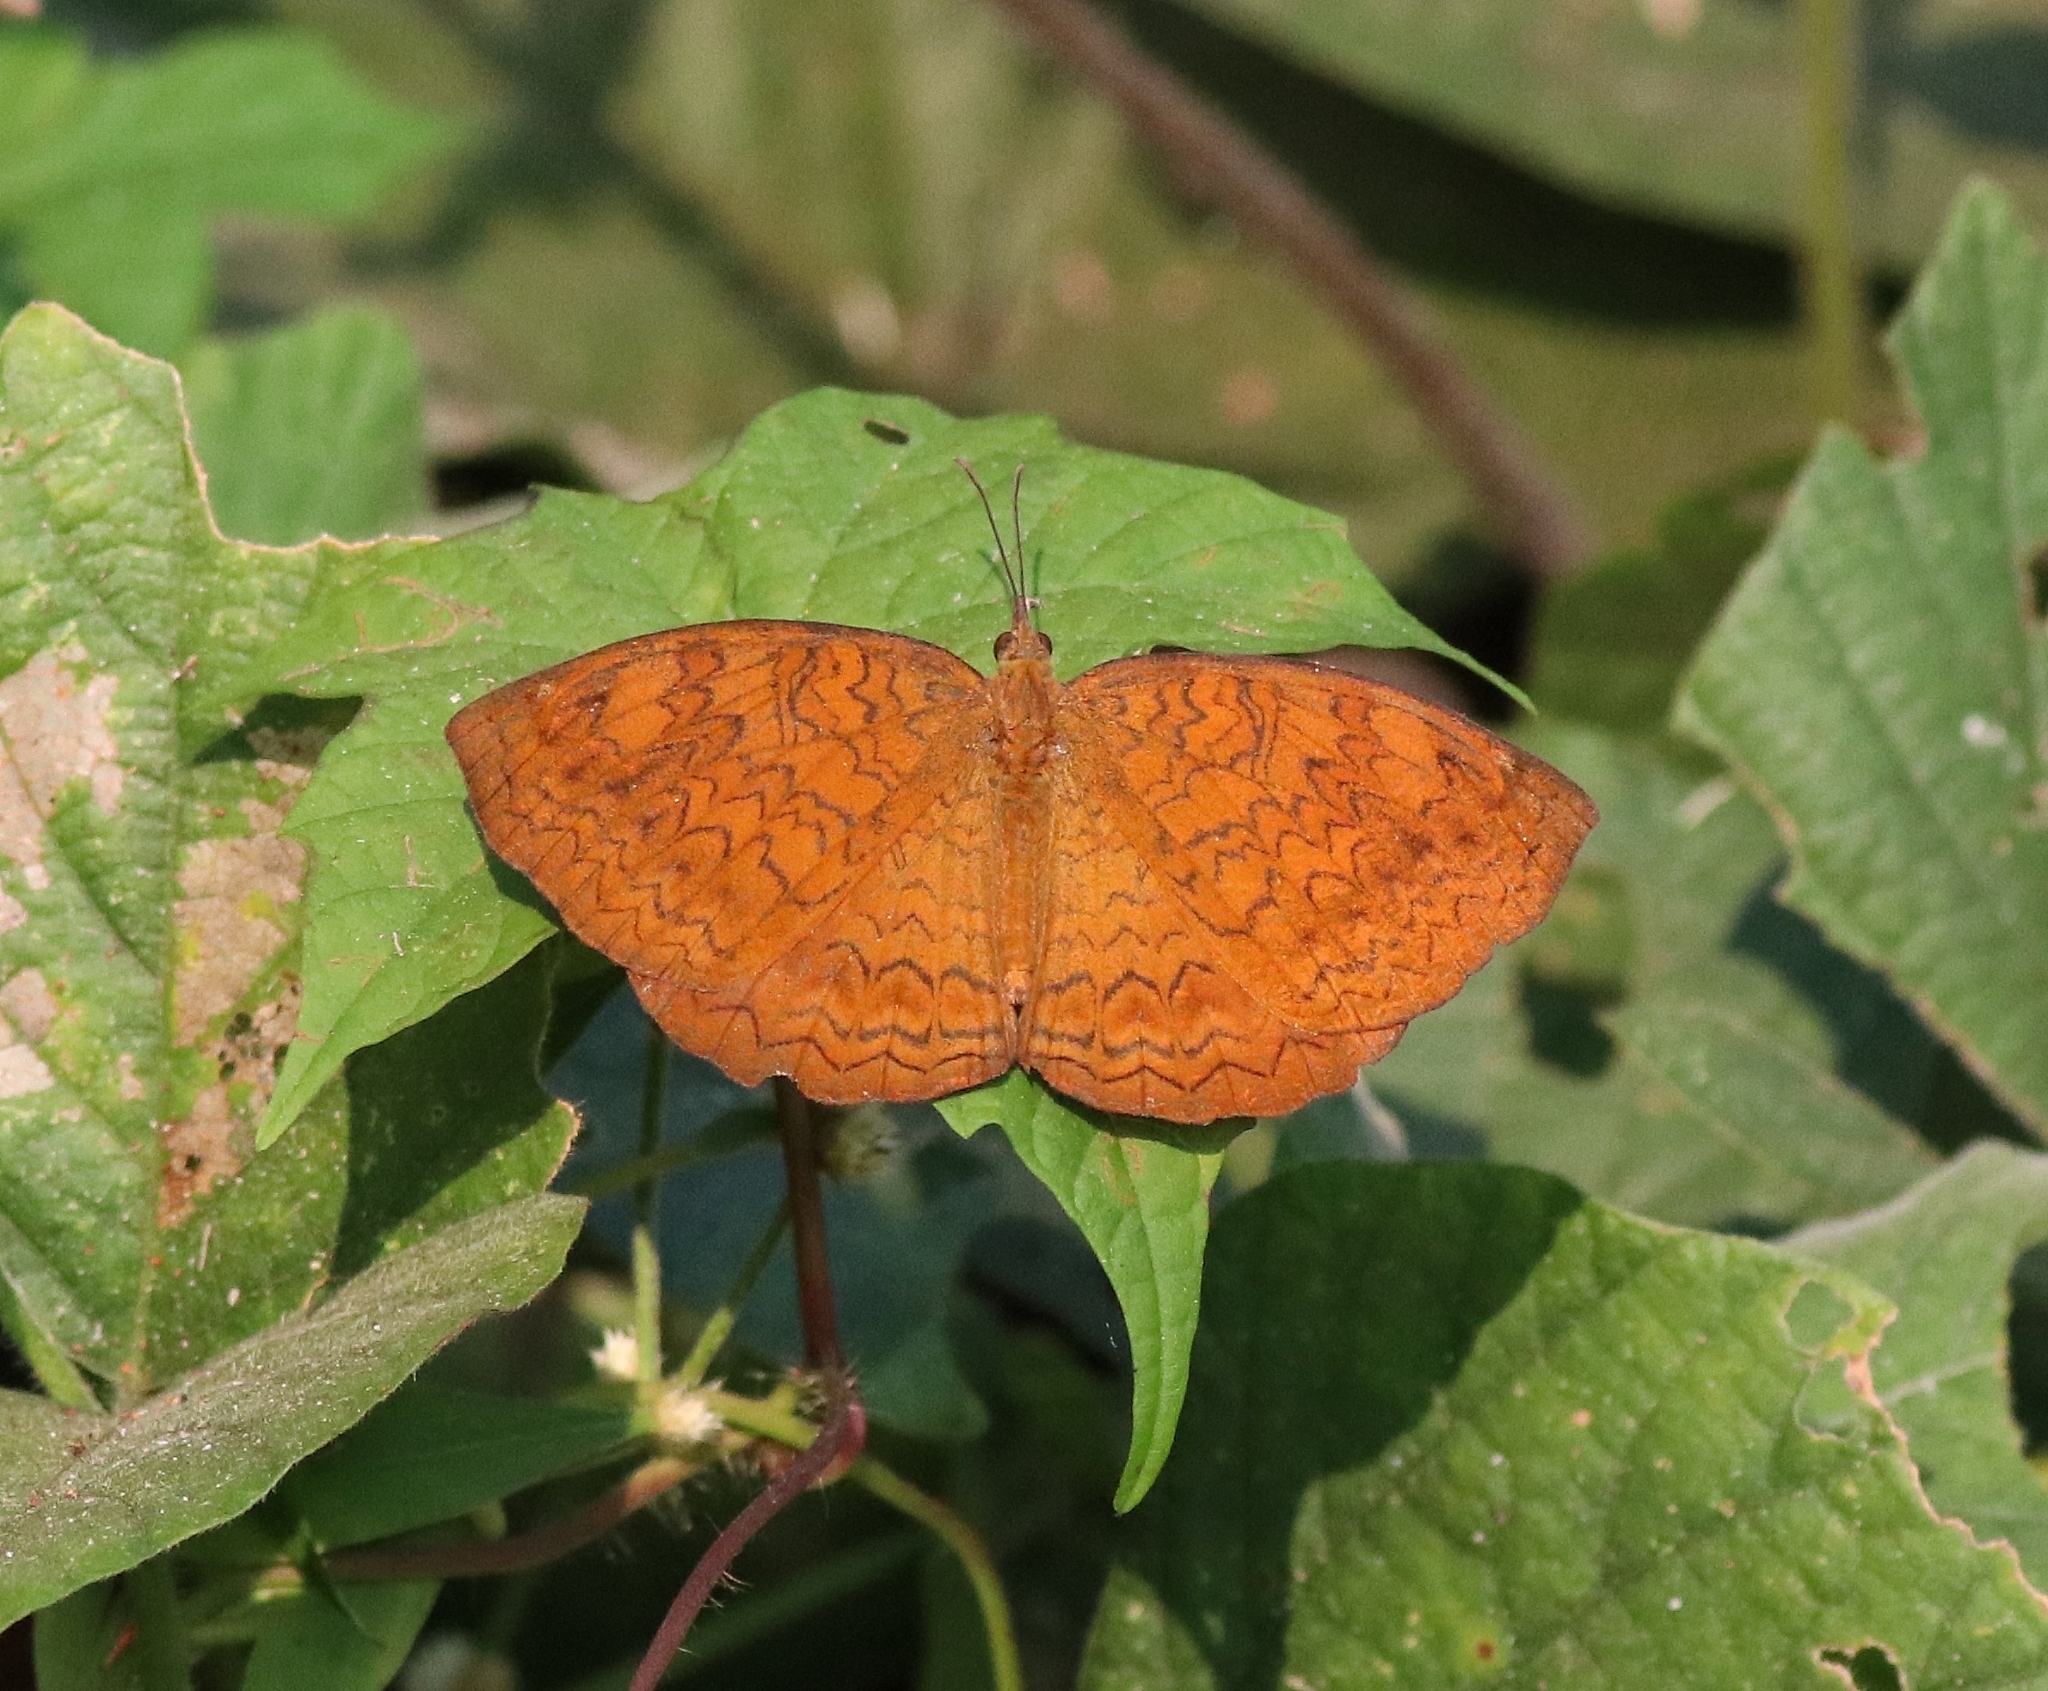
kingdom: Animalia
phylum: Arthropoda
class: Insecta
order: Lepidoptera
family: Nymphalidae
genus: Ariadne
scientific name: Ariadne merione
